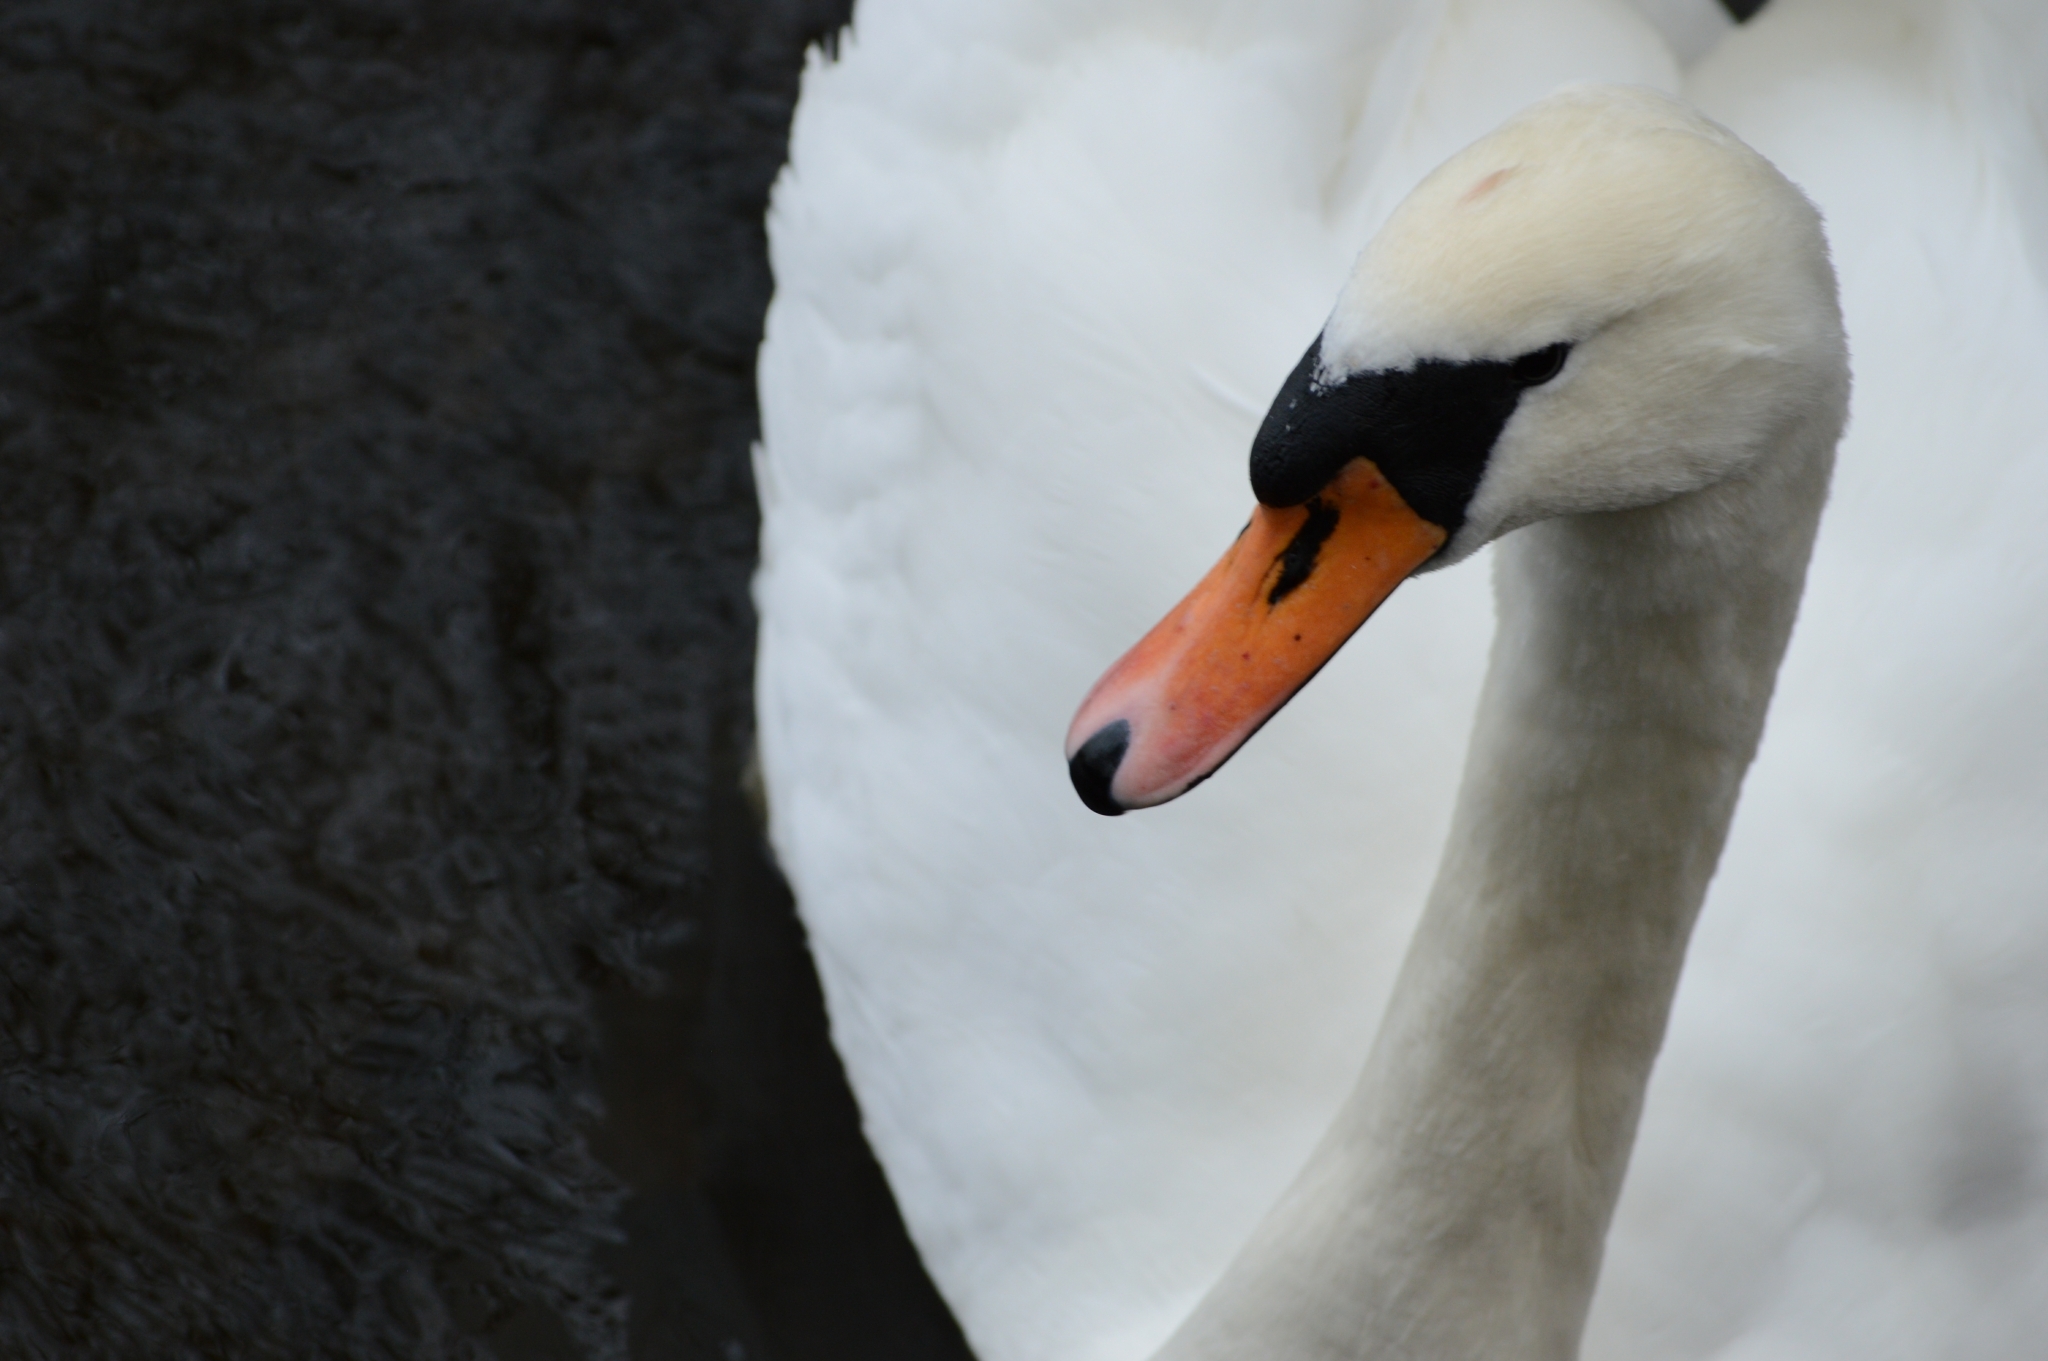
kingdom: Animalia
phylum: Chordata
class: Aves
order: Anseriformes
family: Anatidae
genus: Cygnus
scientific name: Cygnus olor
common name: Mute swan
